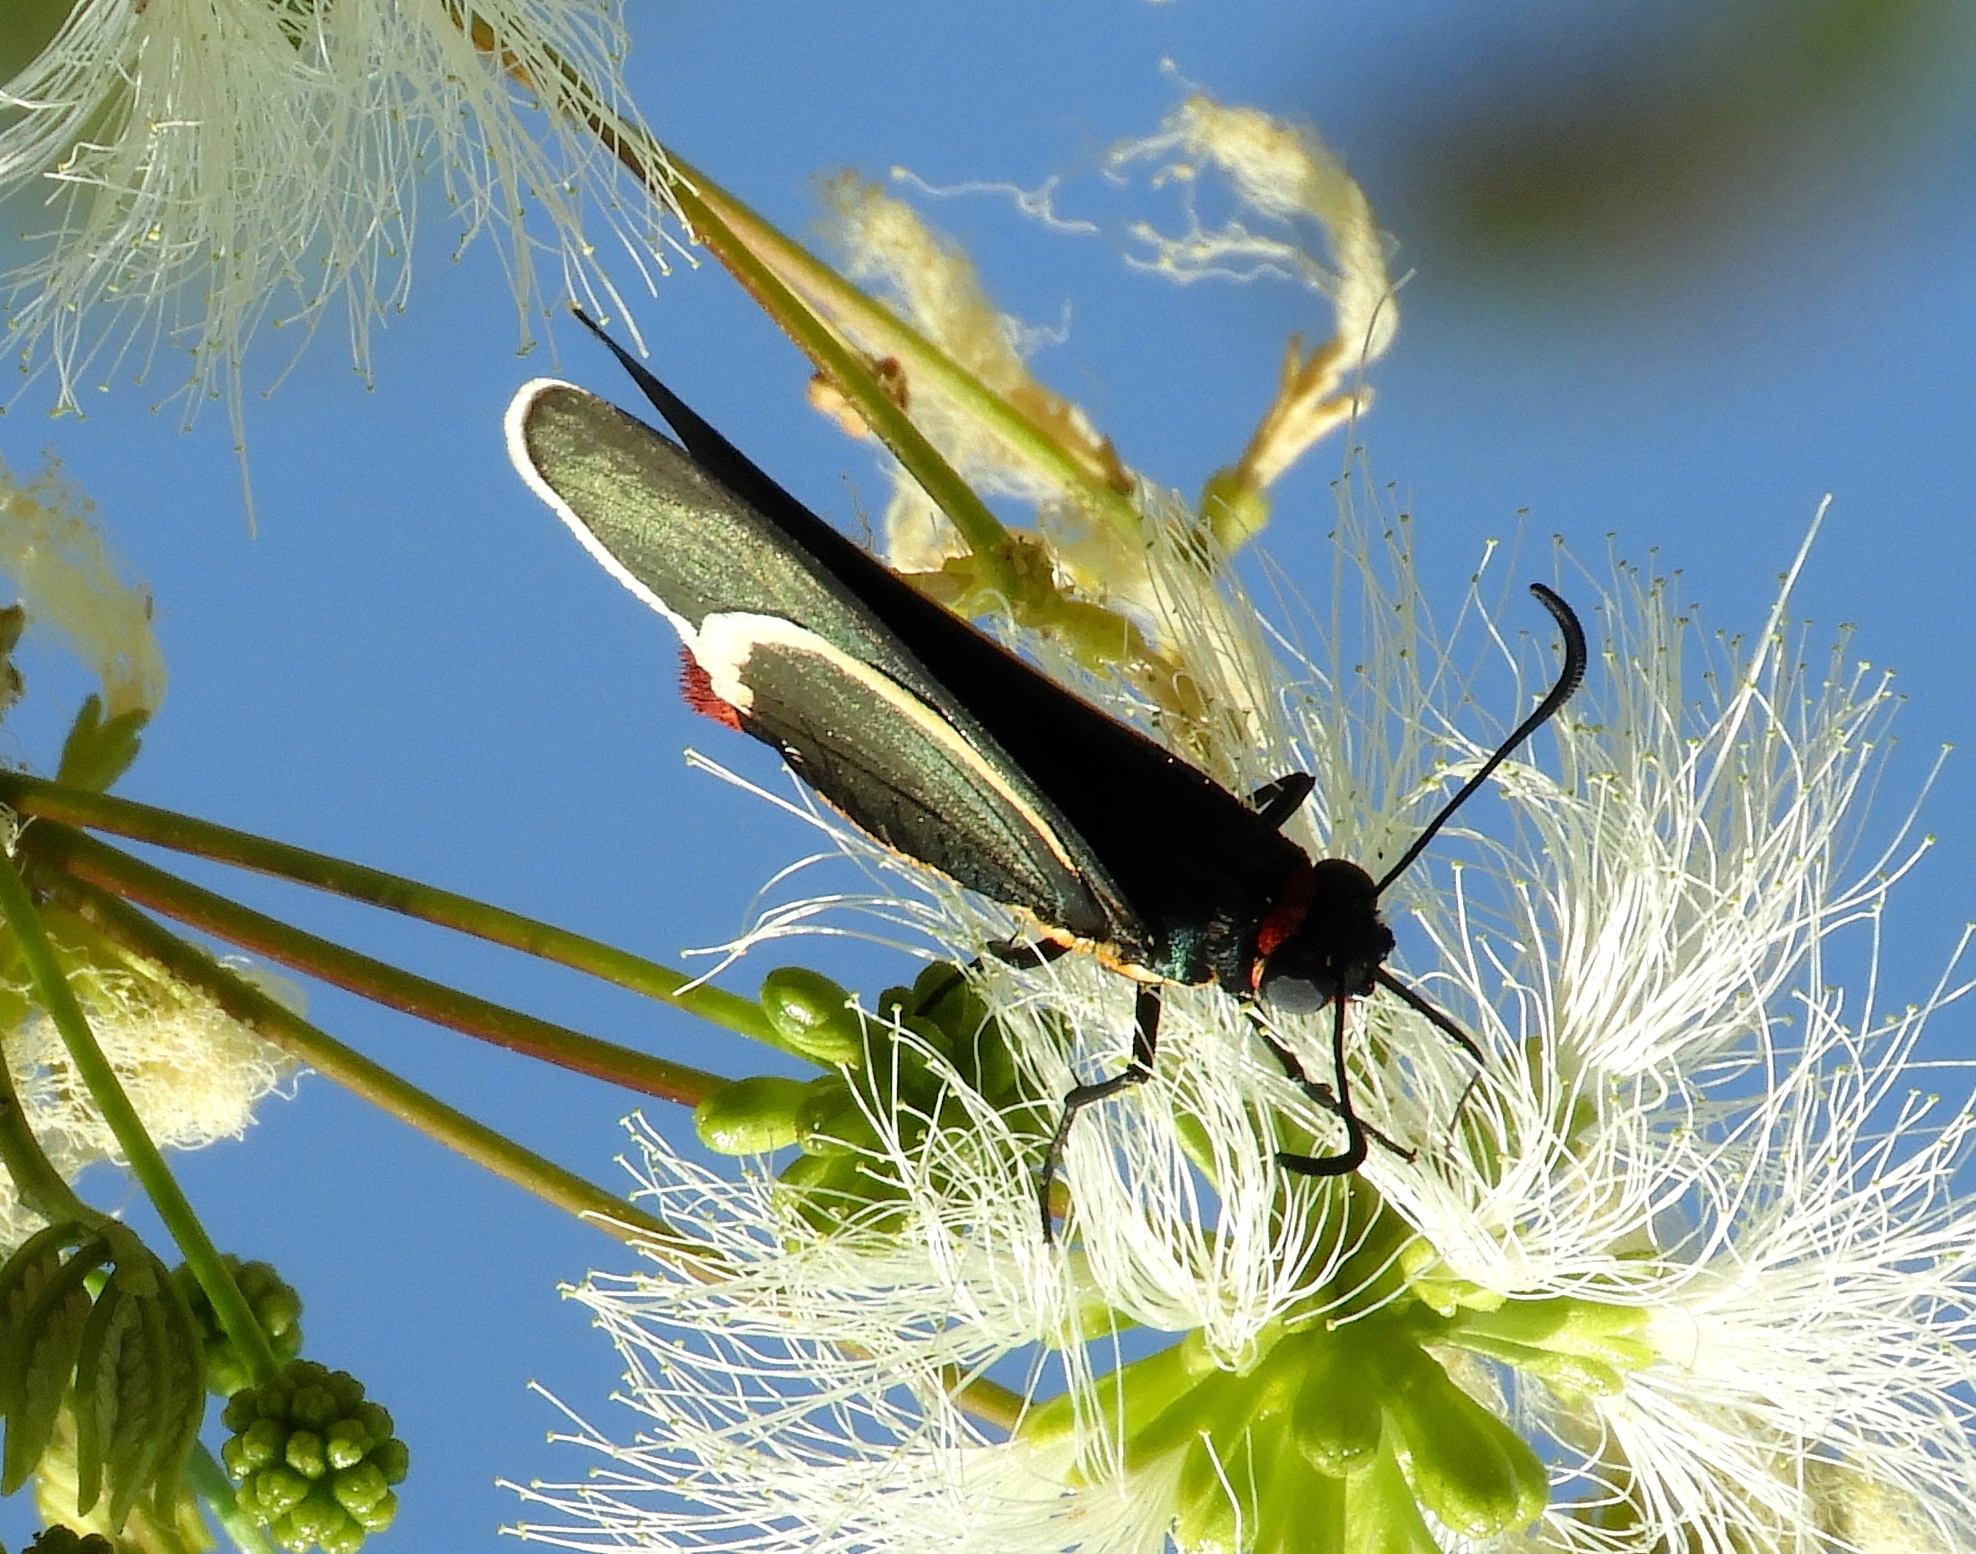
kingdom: Animalia
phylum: Arthropoda
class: Insecta
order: Lepidoptera
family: Hesperiidae
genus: Mysoria
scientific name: Mysoria affinis
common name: Red-collared firetip
